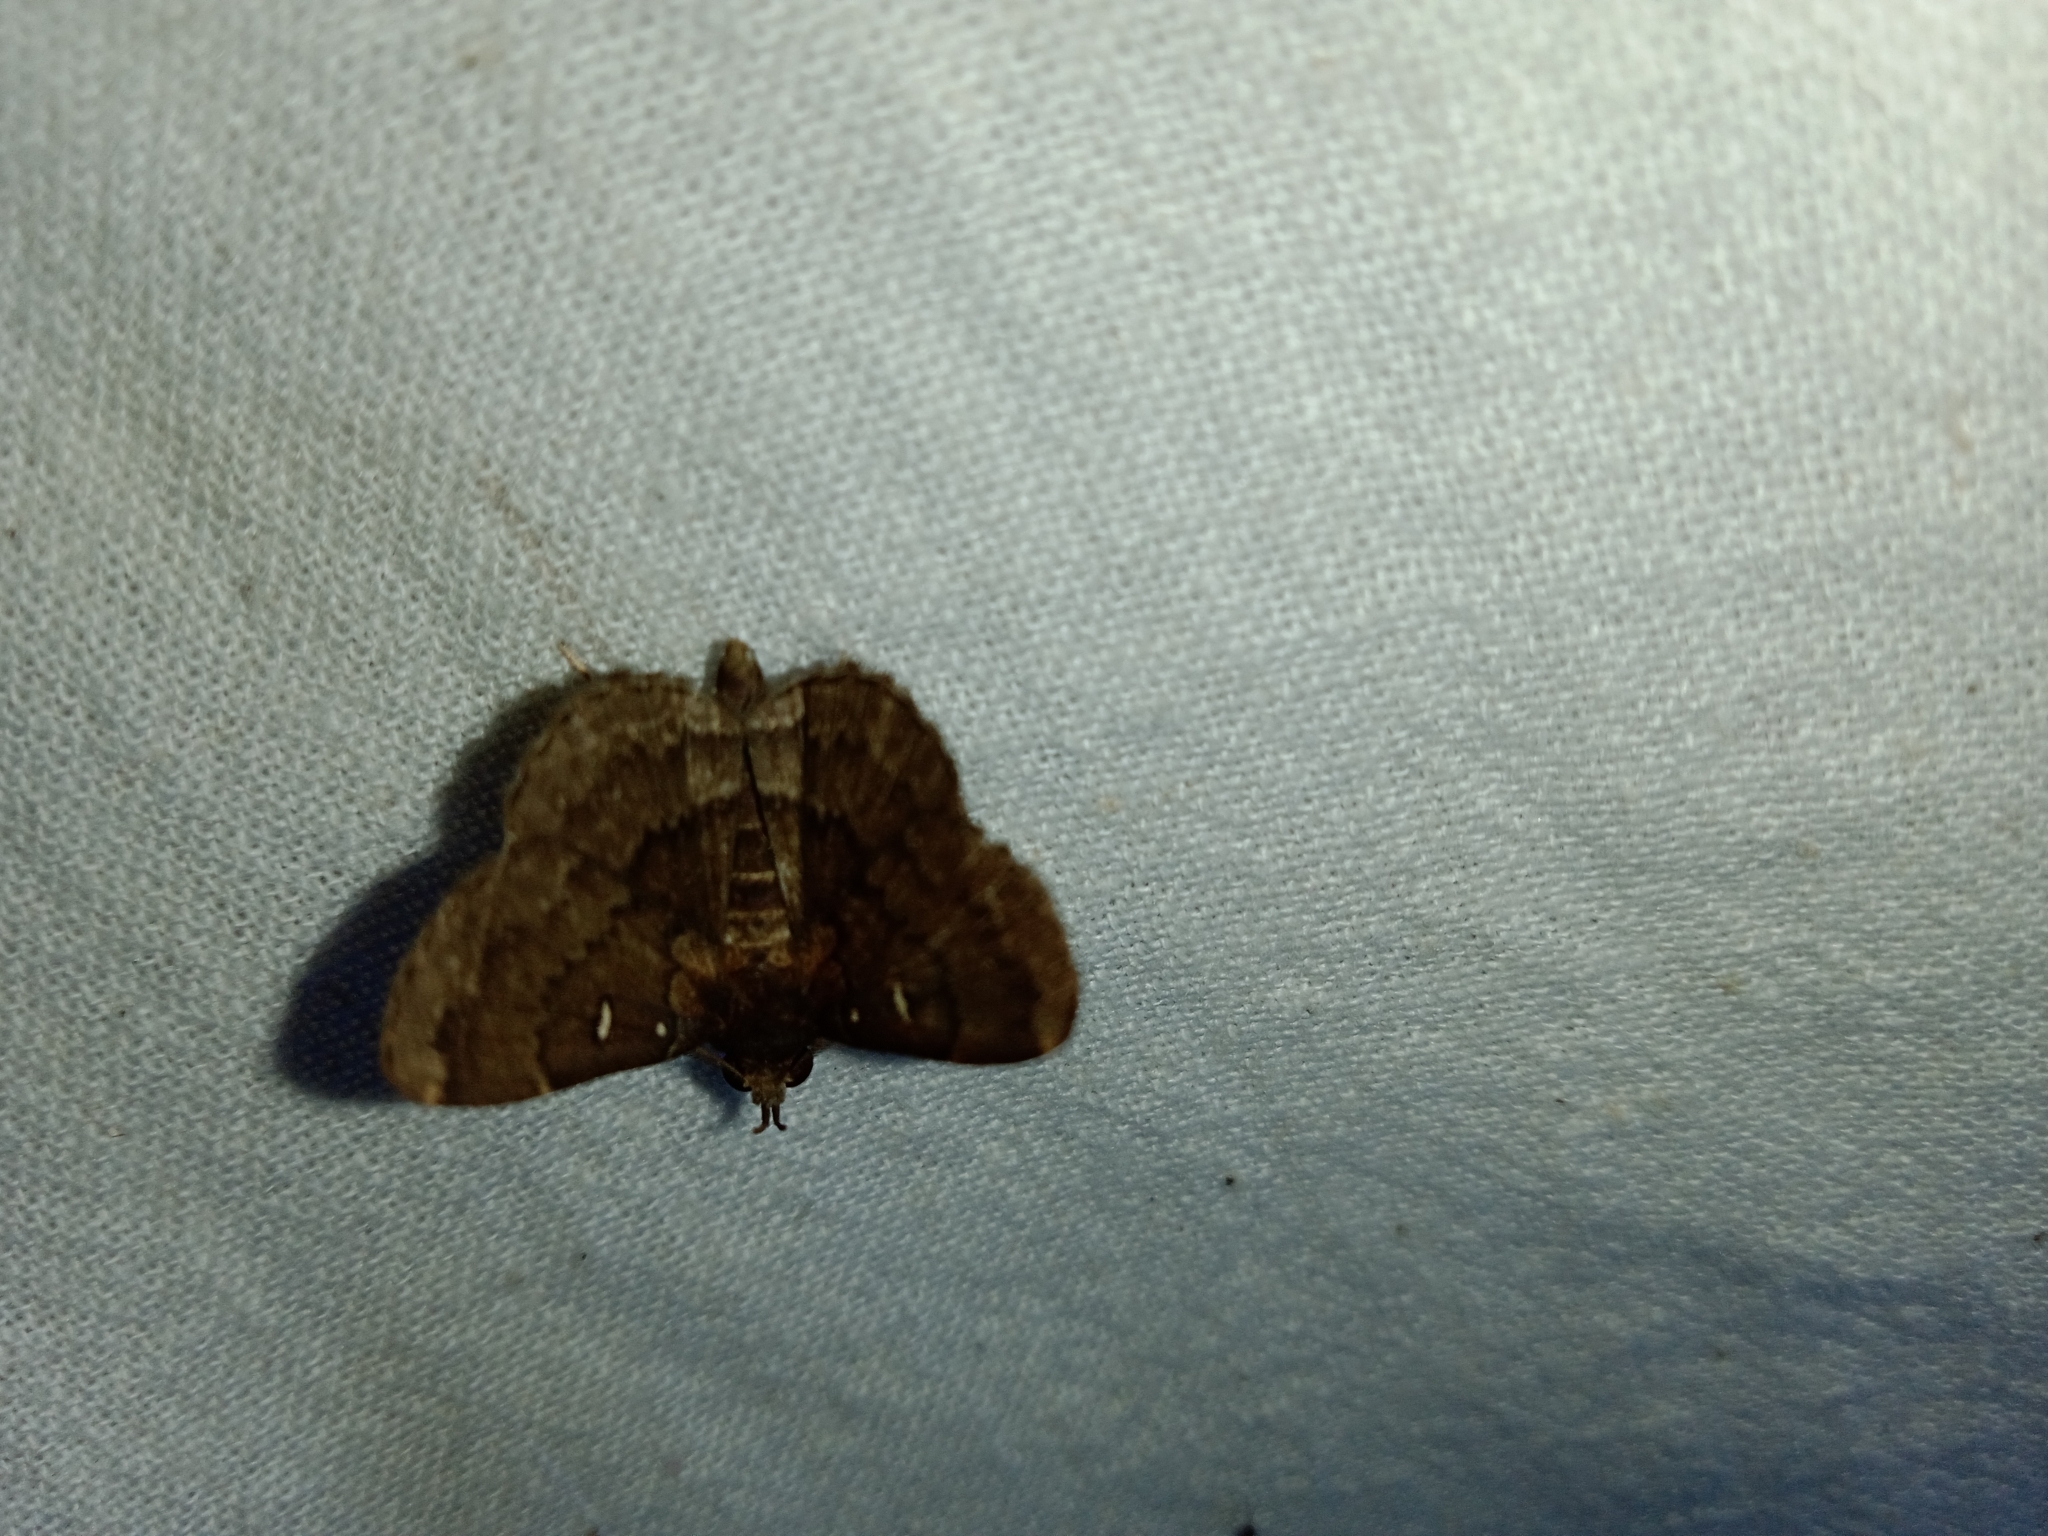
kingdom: Animalia
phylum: Arthropoda
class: Insecta
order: Lepidoptera
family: Erebidae
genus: Bocana
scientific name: Bocana manifestalis
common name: Moth
